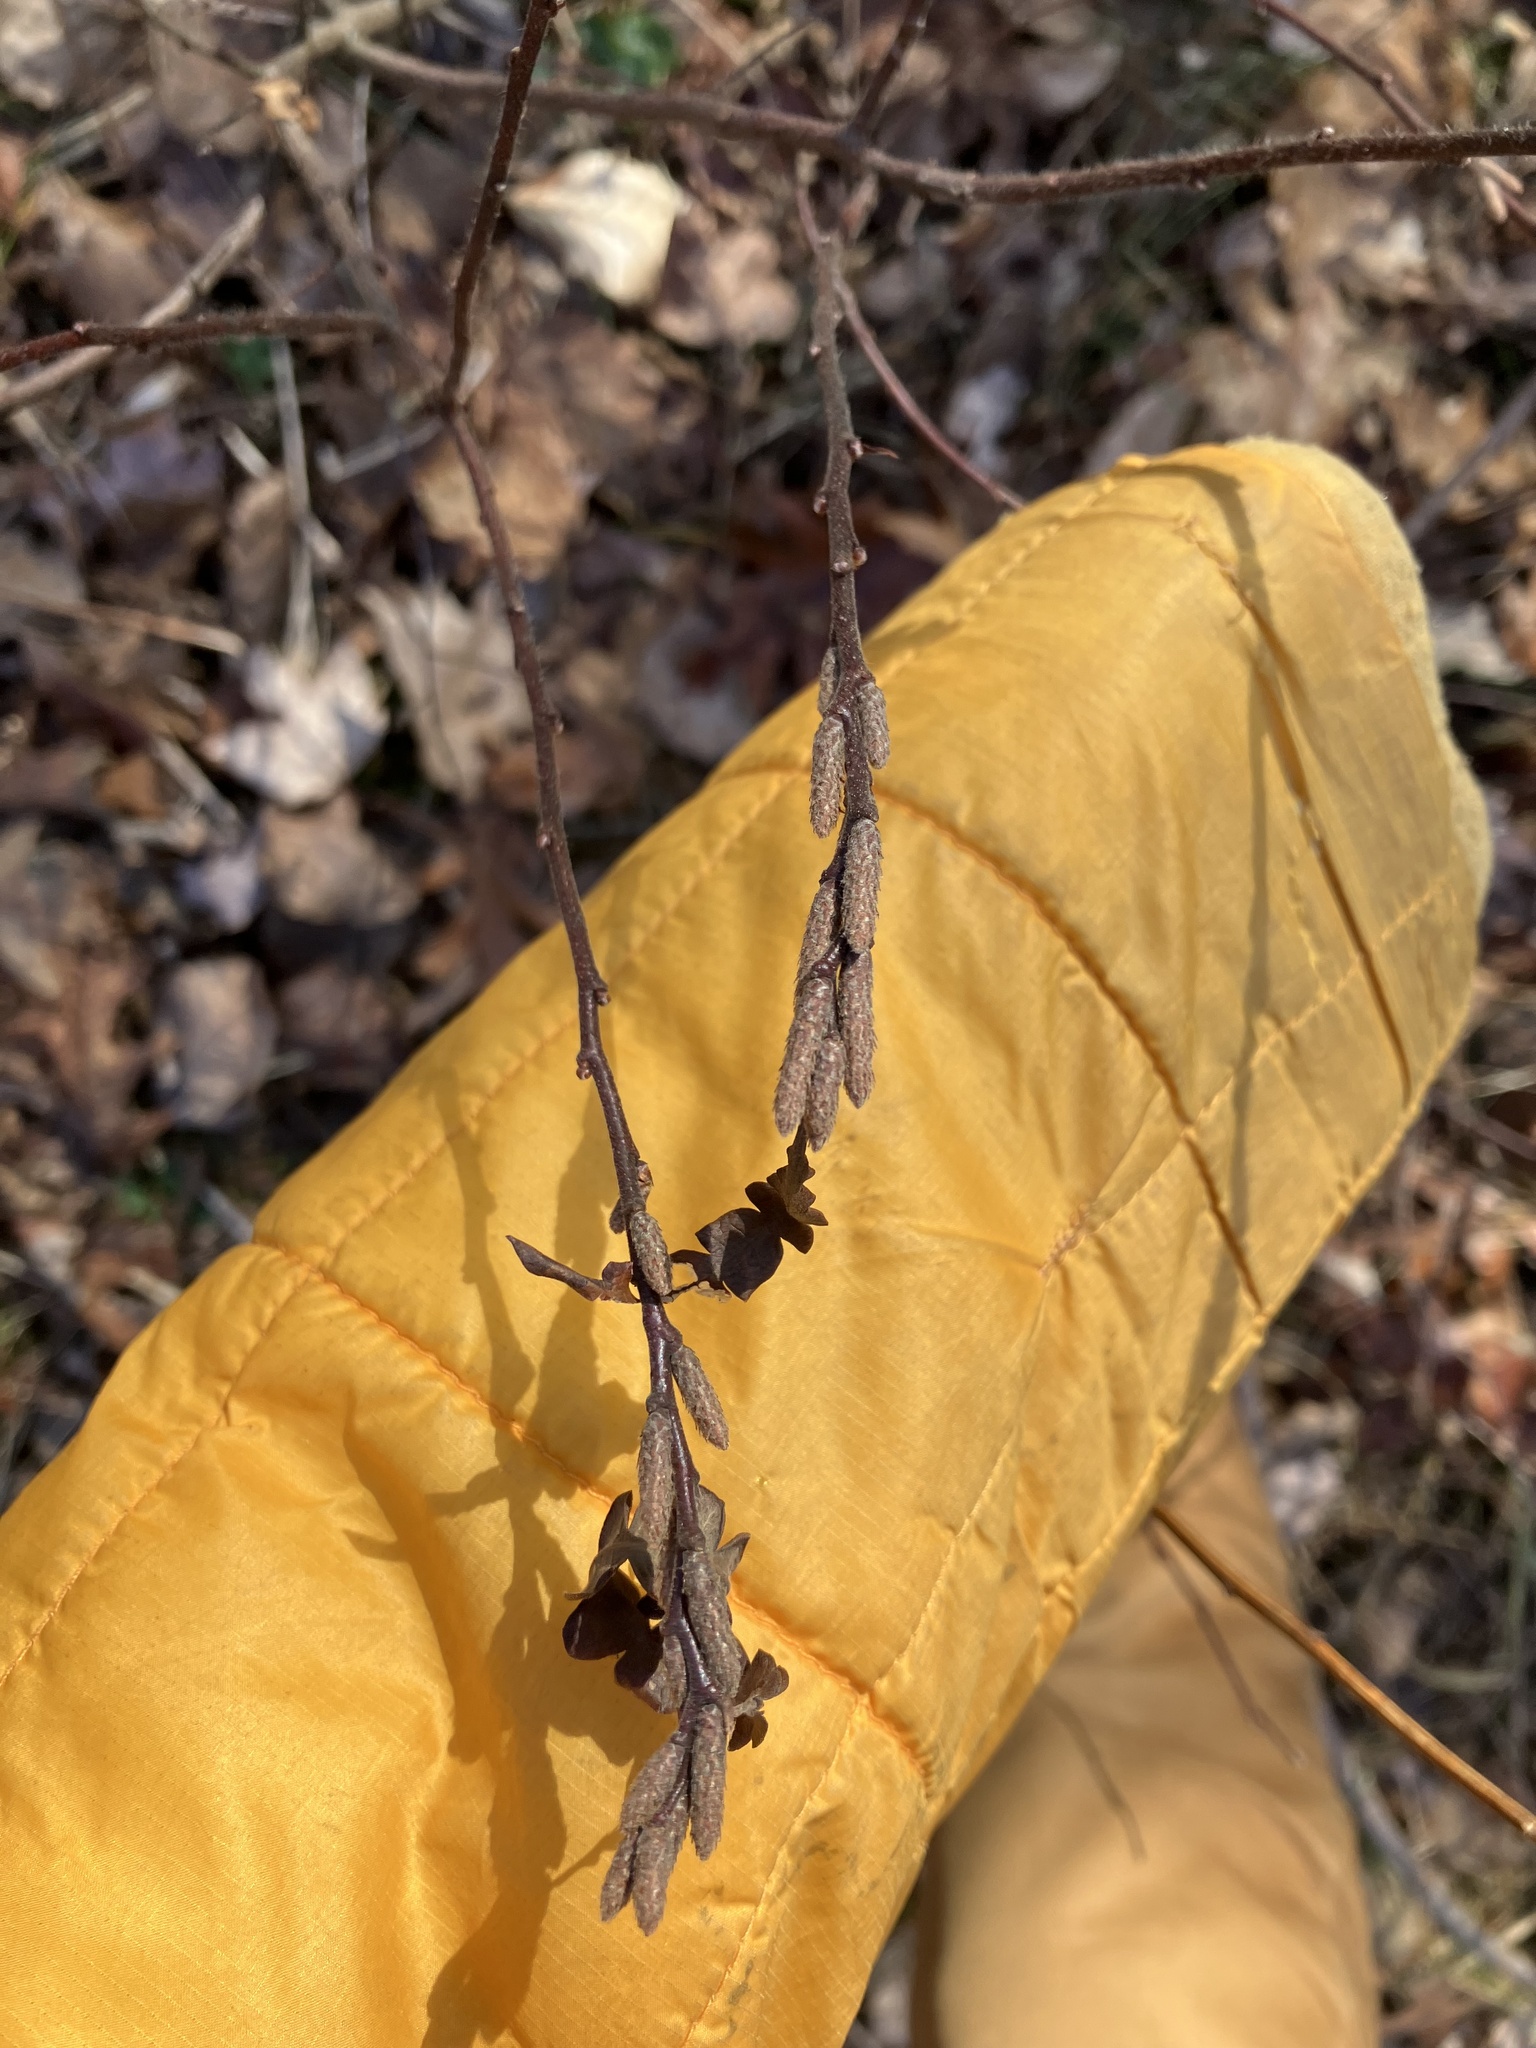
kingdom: Plantae
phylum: Tracheophyta
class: Magnoliopsida
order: Fagales
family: Myricaceae
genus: Comptonia
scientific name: Comptonia peregrina
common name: Sweet-fern
